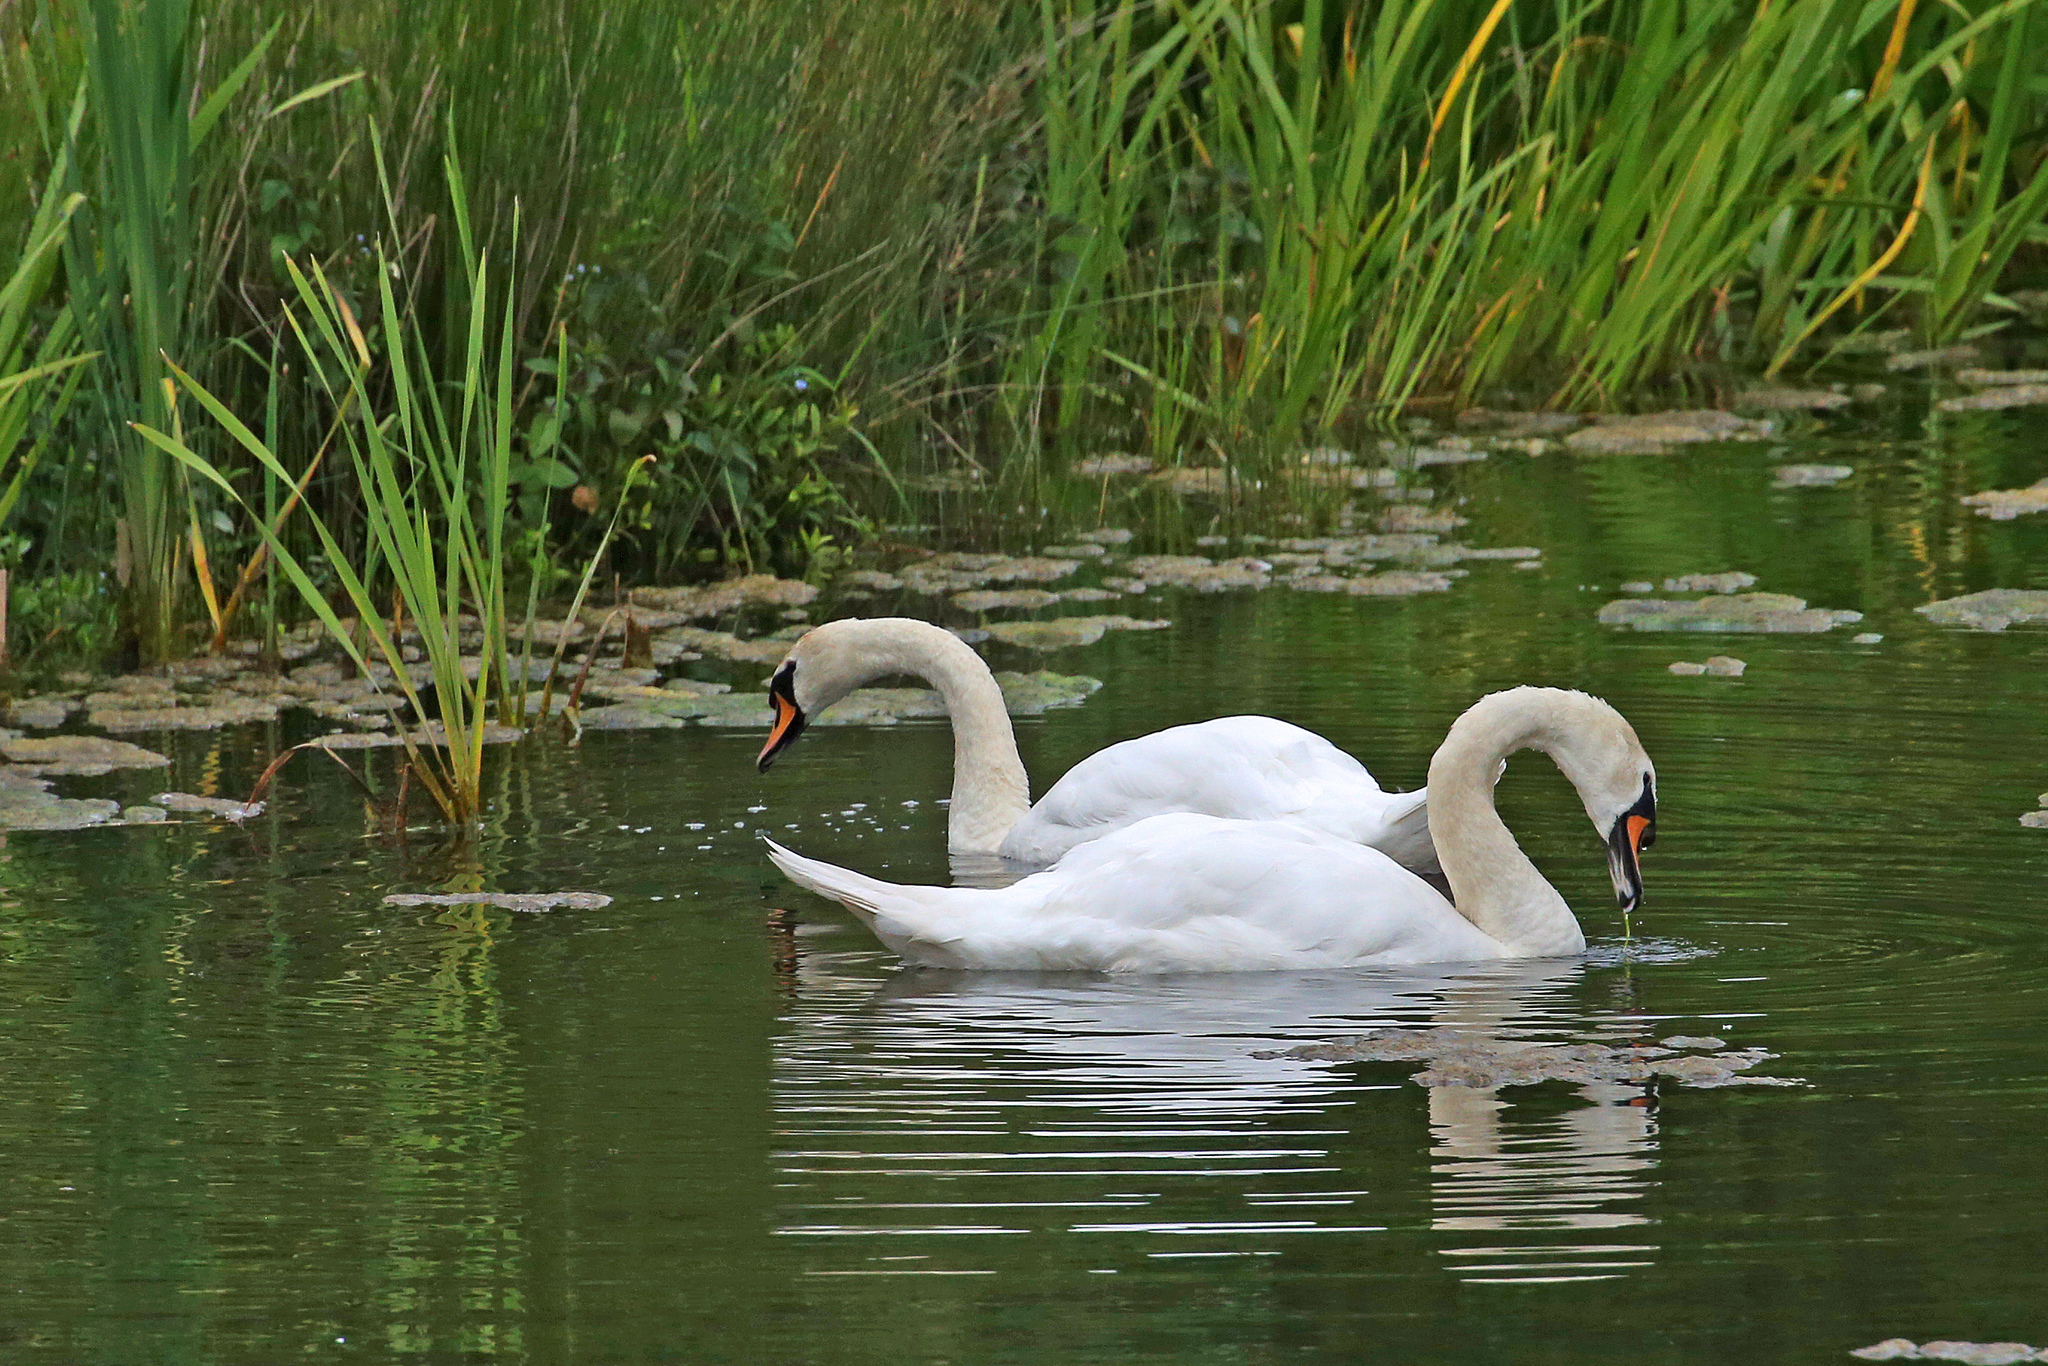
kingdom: Animalia
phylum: Chordata
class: Aves
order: Anseriformes
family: Anatidae
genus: Cygnus
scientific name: Cygnus olor
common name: Mute swan
